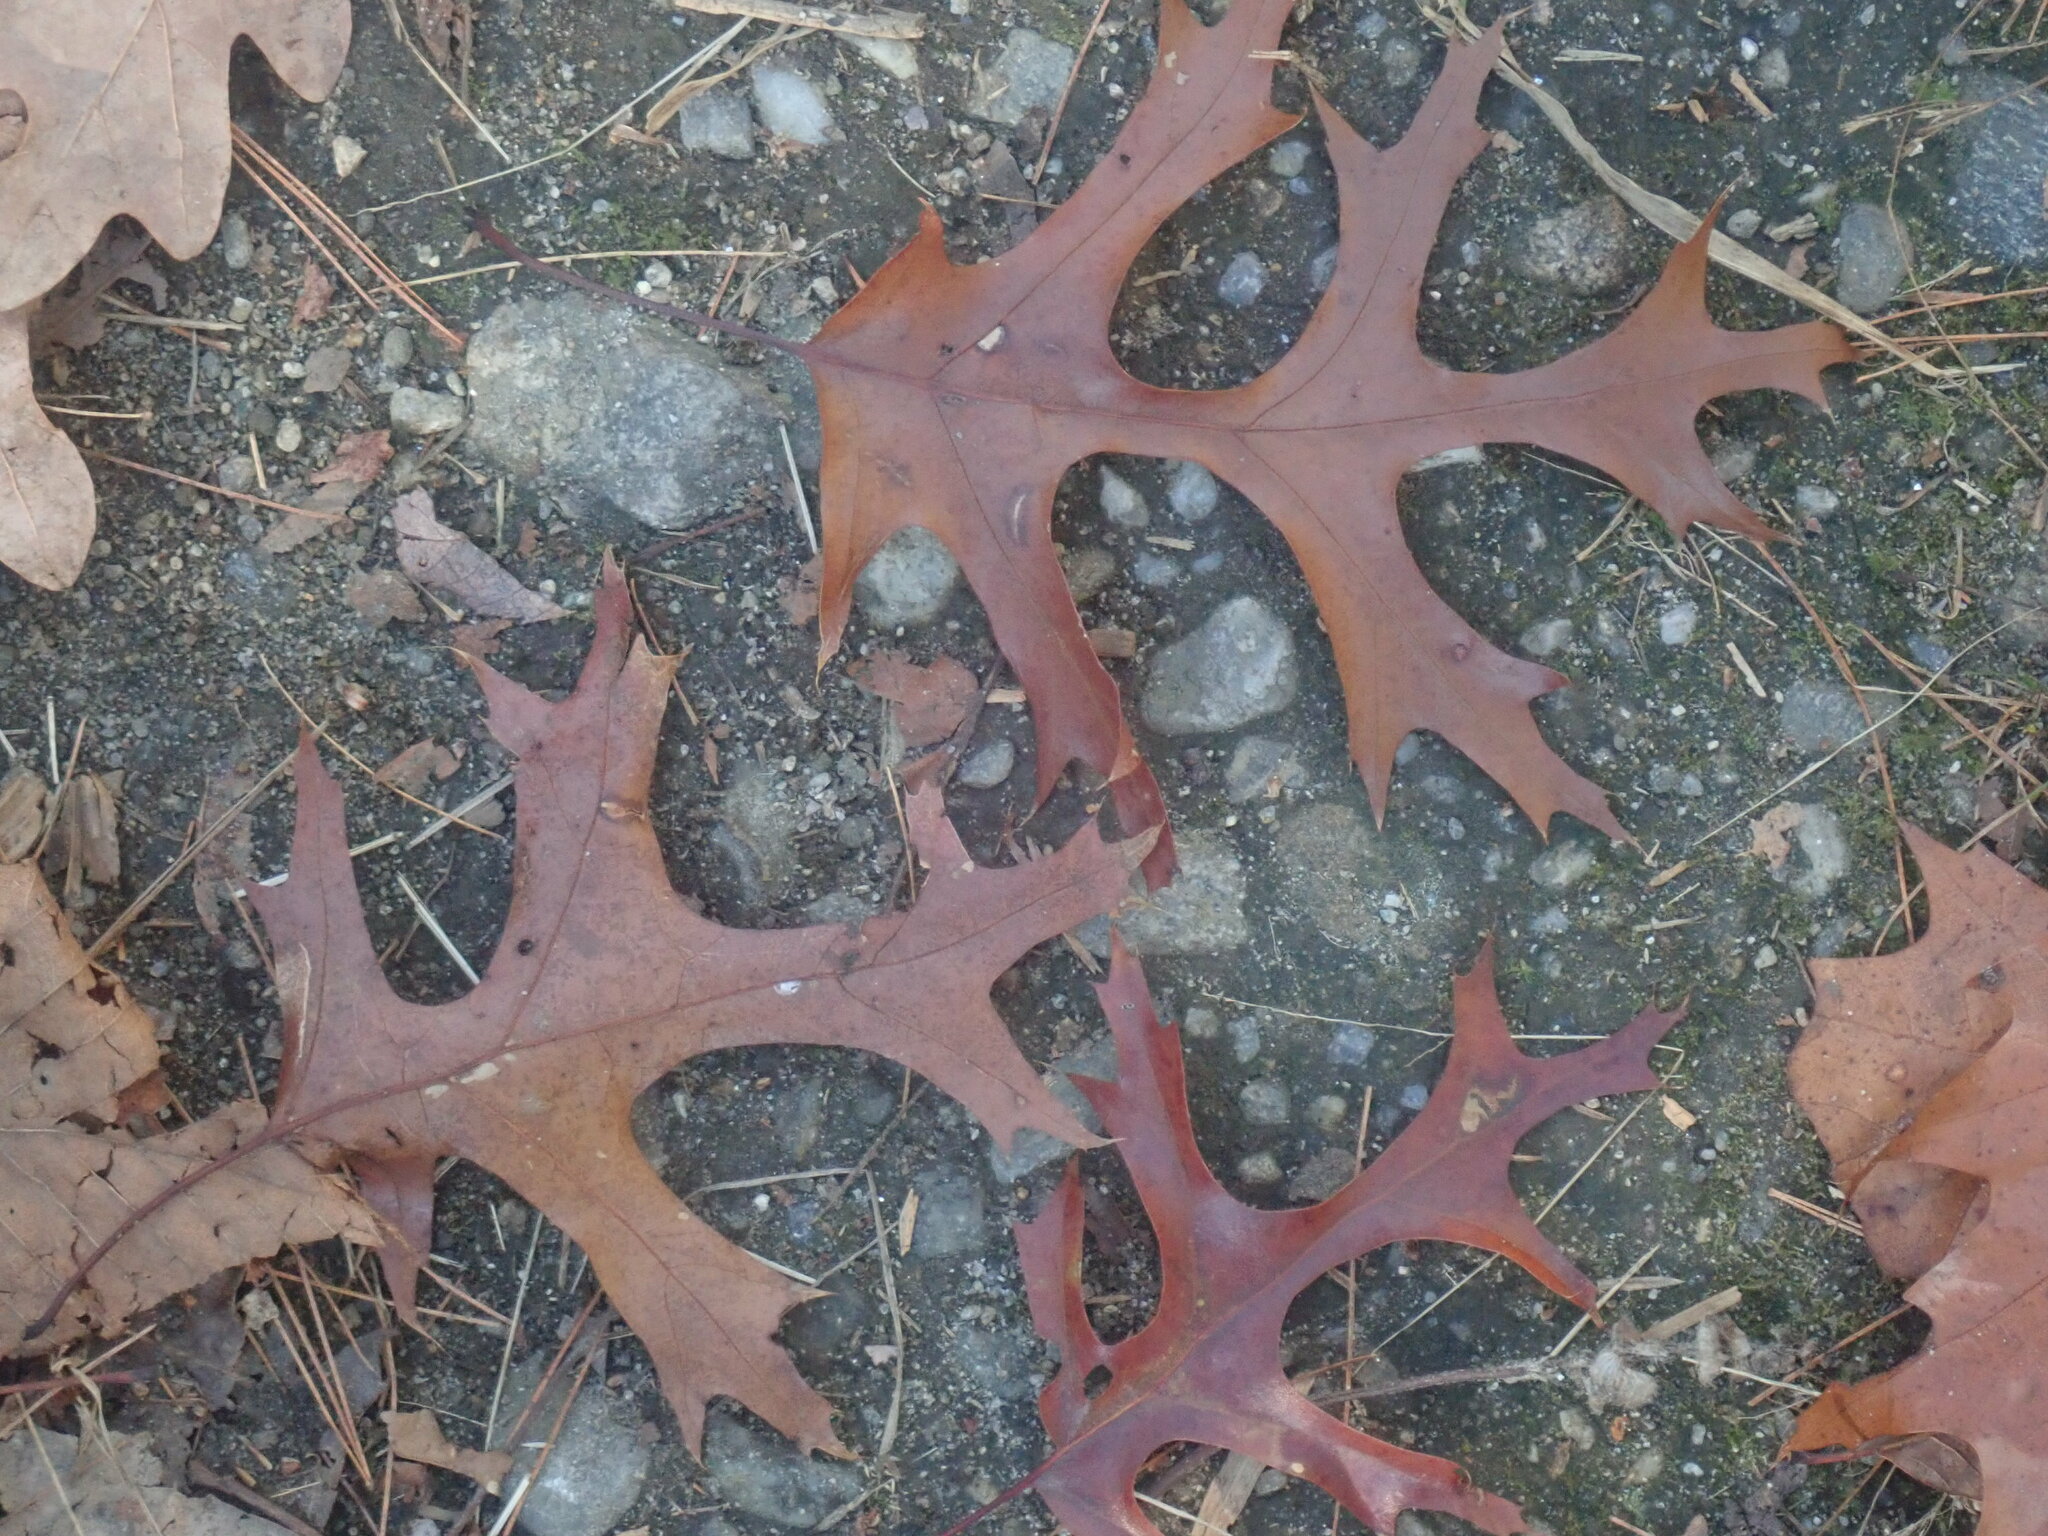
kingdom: Plantae
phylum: Tracheophyta
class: Magnoliopsida
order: Fagales
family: Fagaceae
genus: Quercus
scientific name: Quercus coccinea
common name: Scarlet oak
